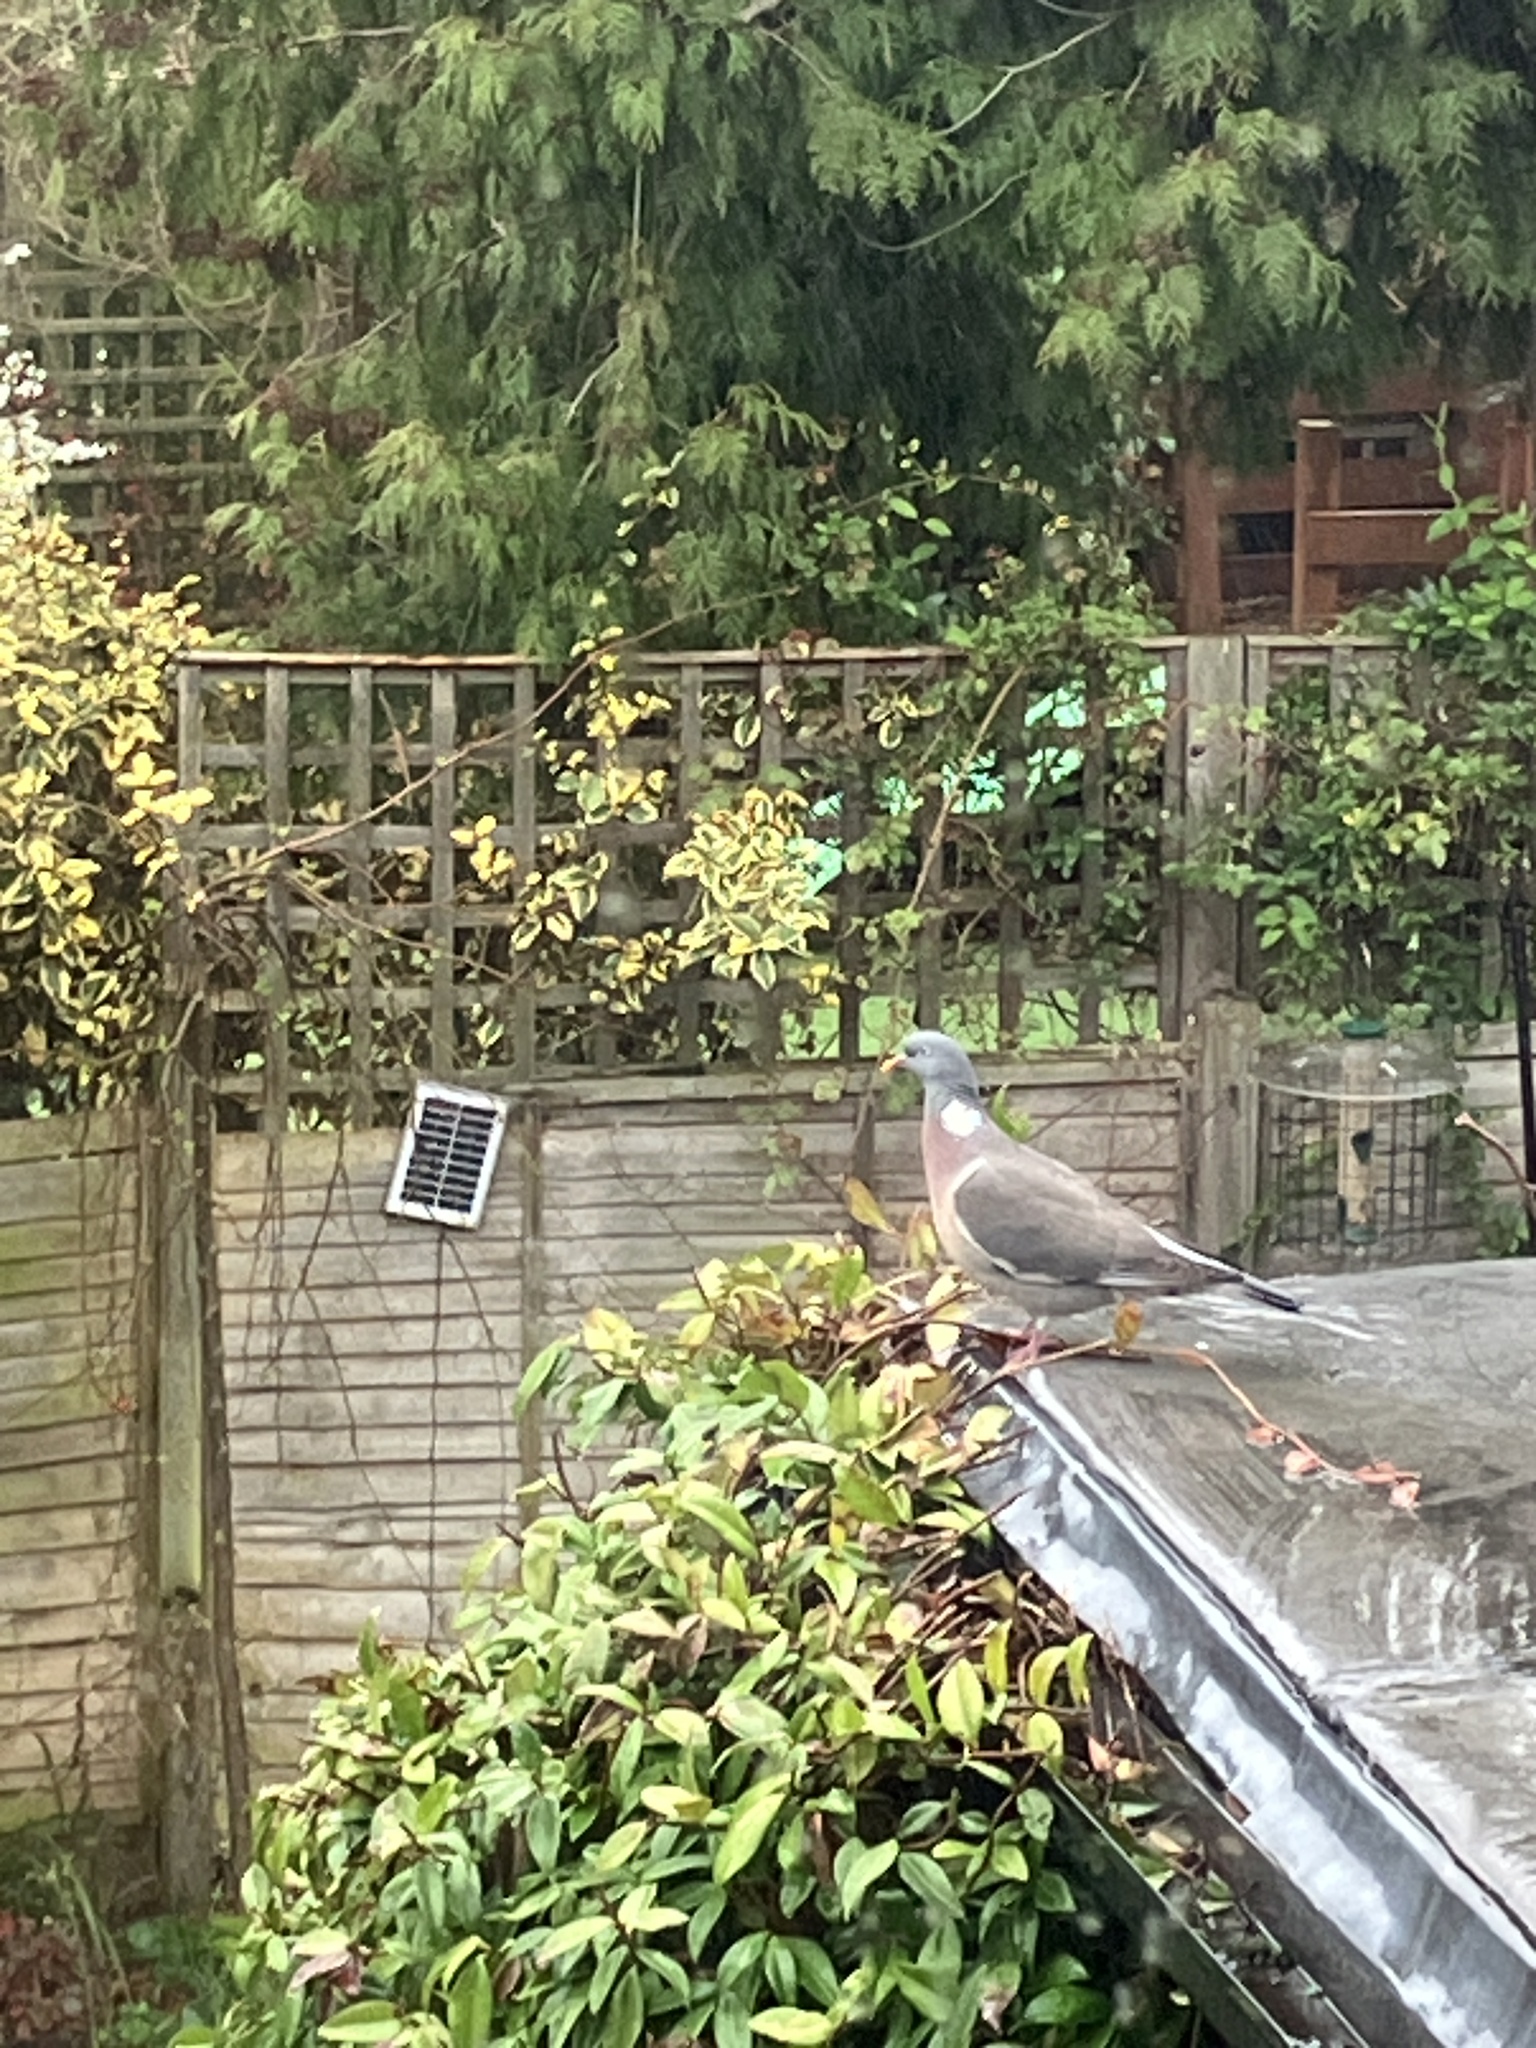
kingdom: Animalia
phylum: Chordata
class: Aves
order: Columbiformes
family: Columbidae
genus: Columba
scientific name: Columba palumbus
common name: Common wood pigeon
